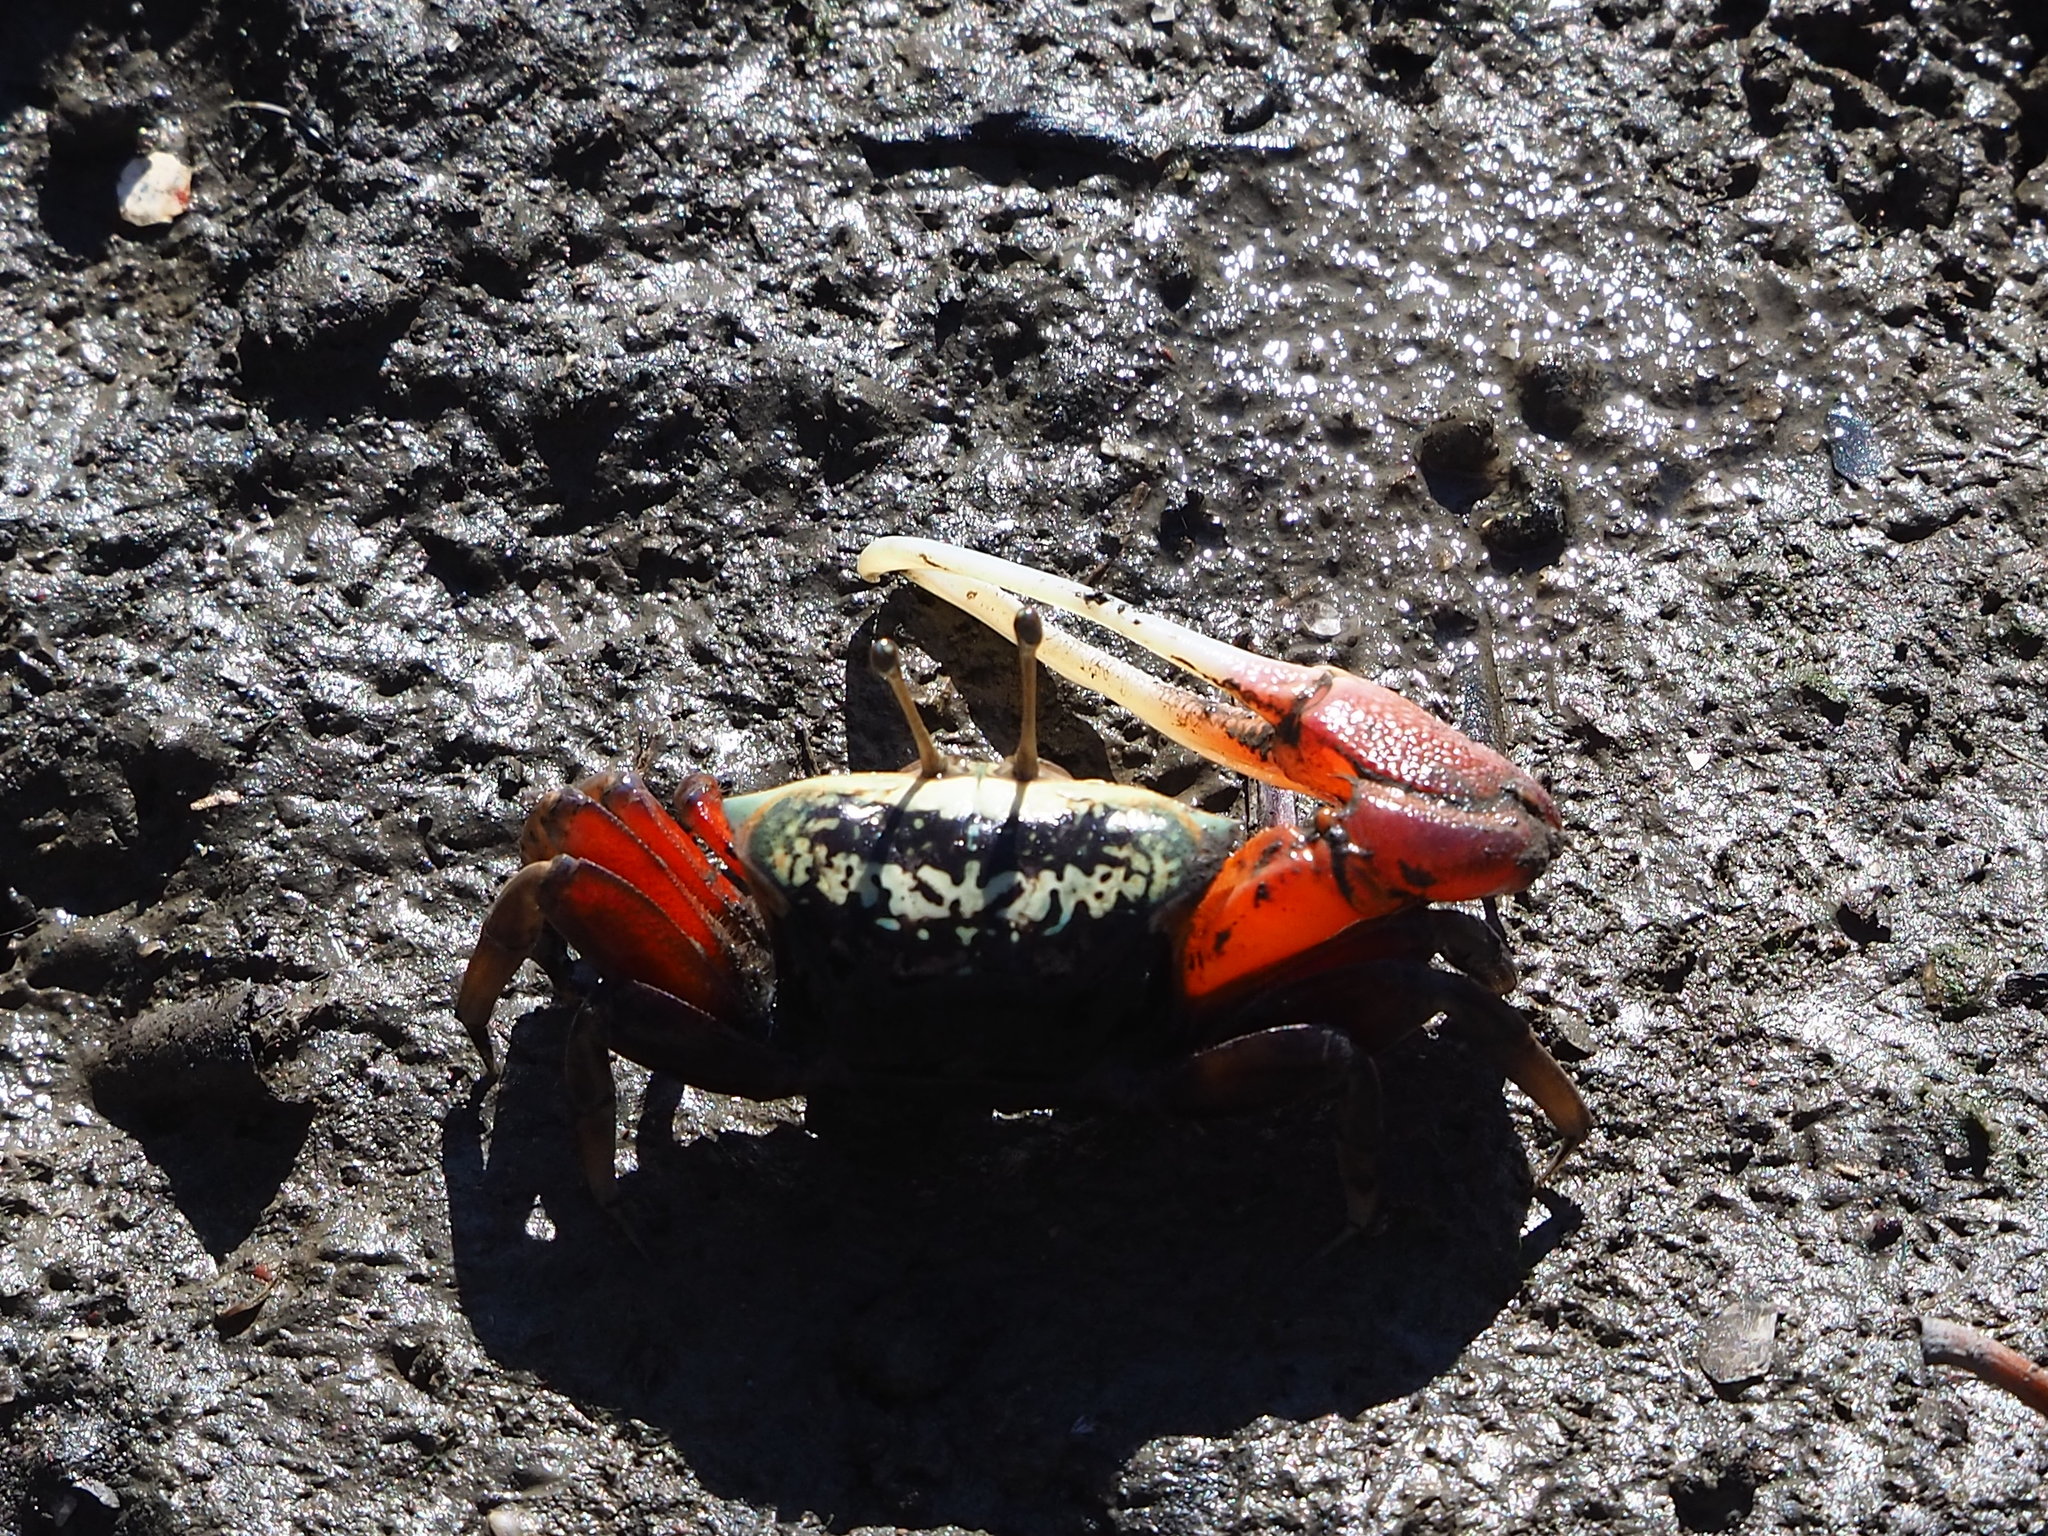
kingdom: Animalia
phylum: Arthropoda
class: Malacostraca
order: Decapoda
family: Ocypodidae
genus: Tubuca
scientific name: Tubuca arcuata
